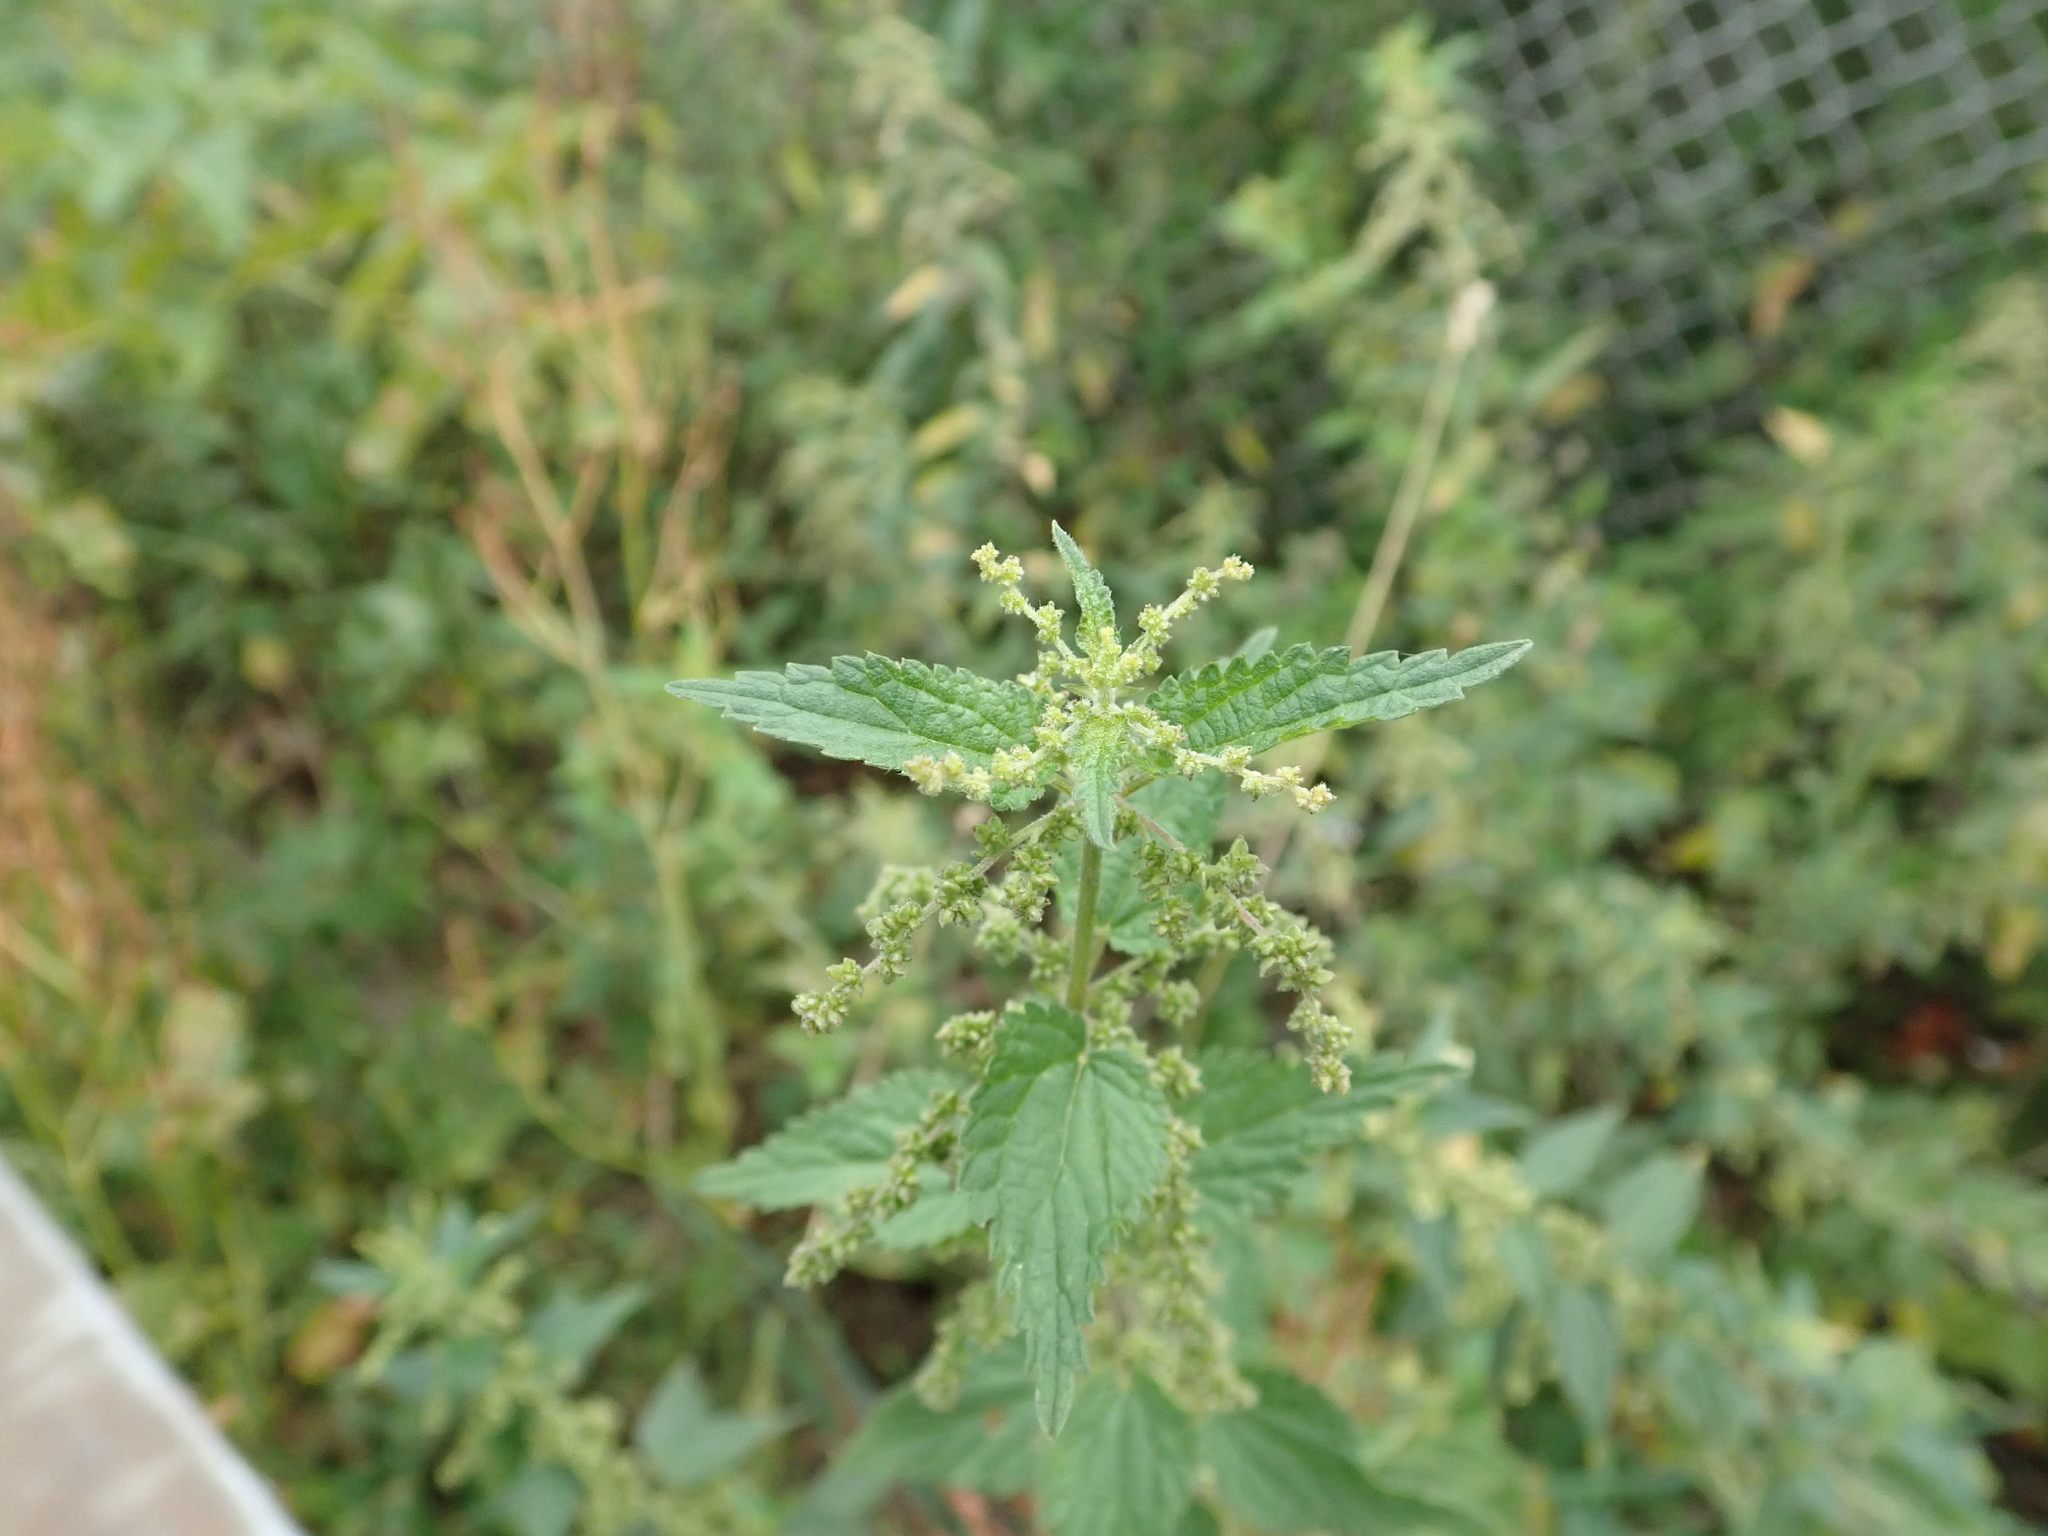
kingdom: Plantae
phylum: Tracheophyta
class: Magnoliopsida
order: Rosales
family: Urticaceae
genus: Urtica
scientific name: Urtica dioica
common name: Common nettle
